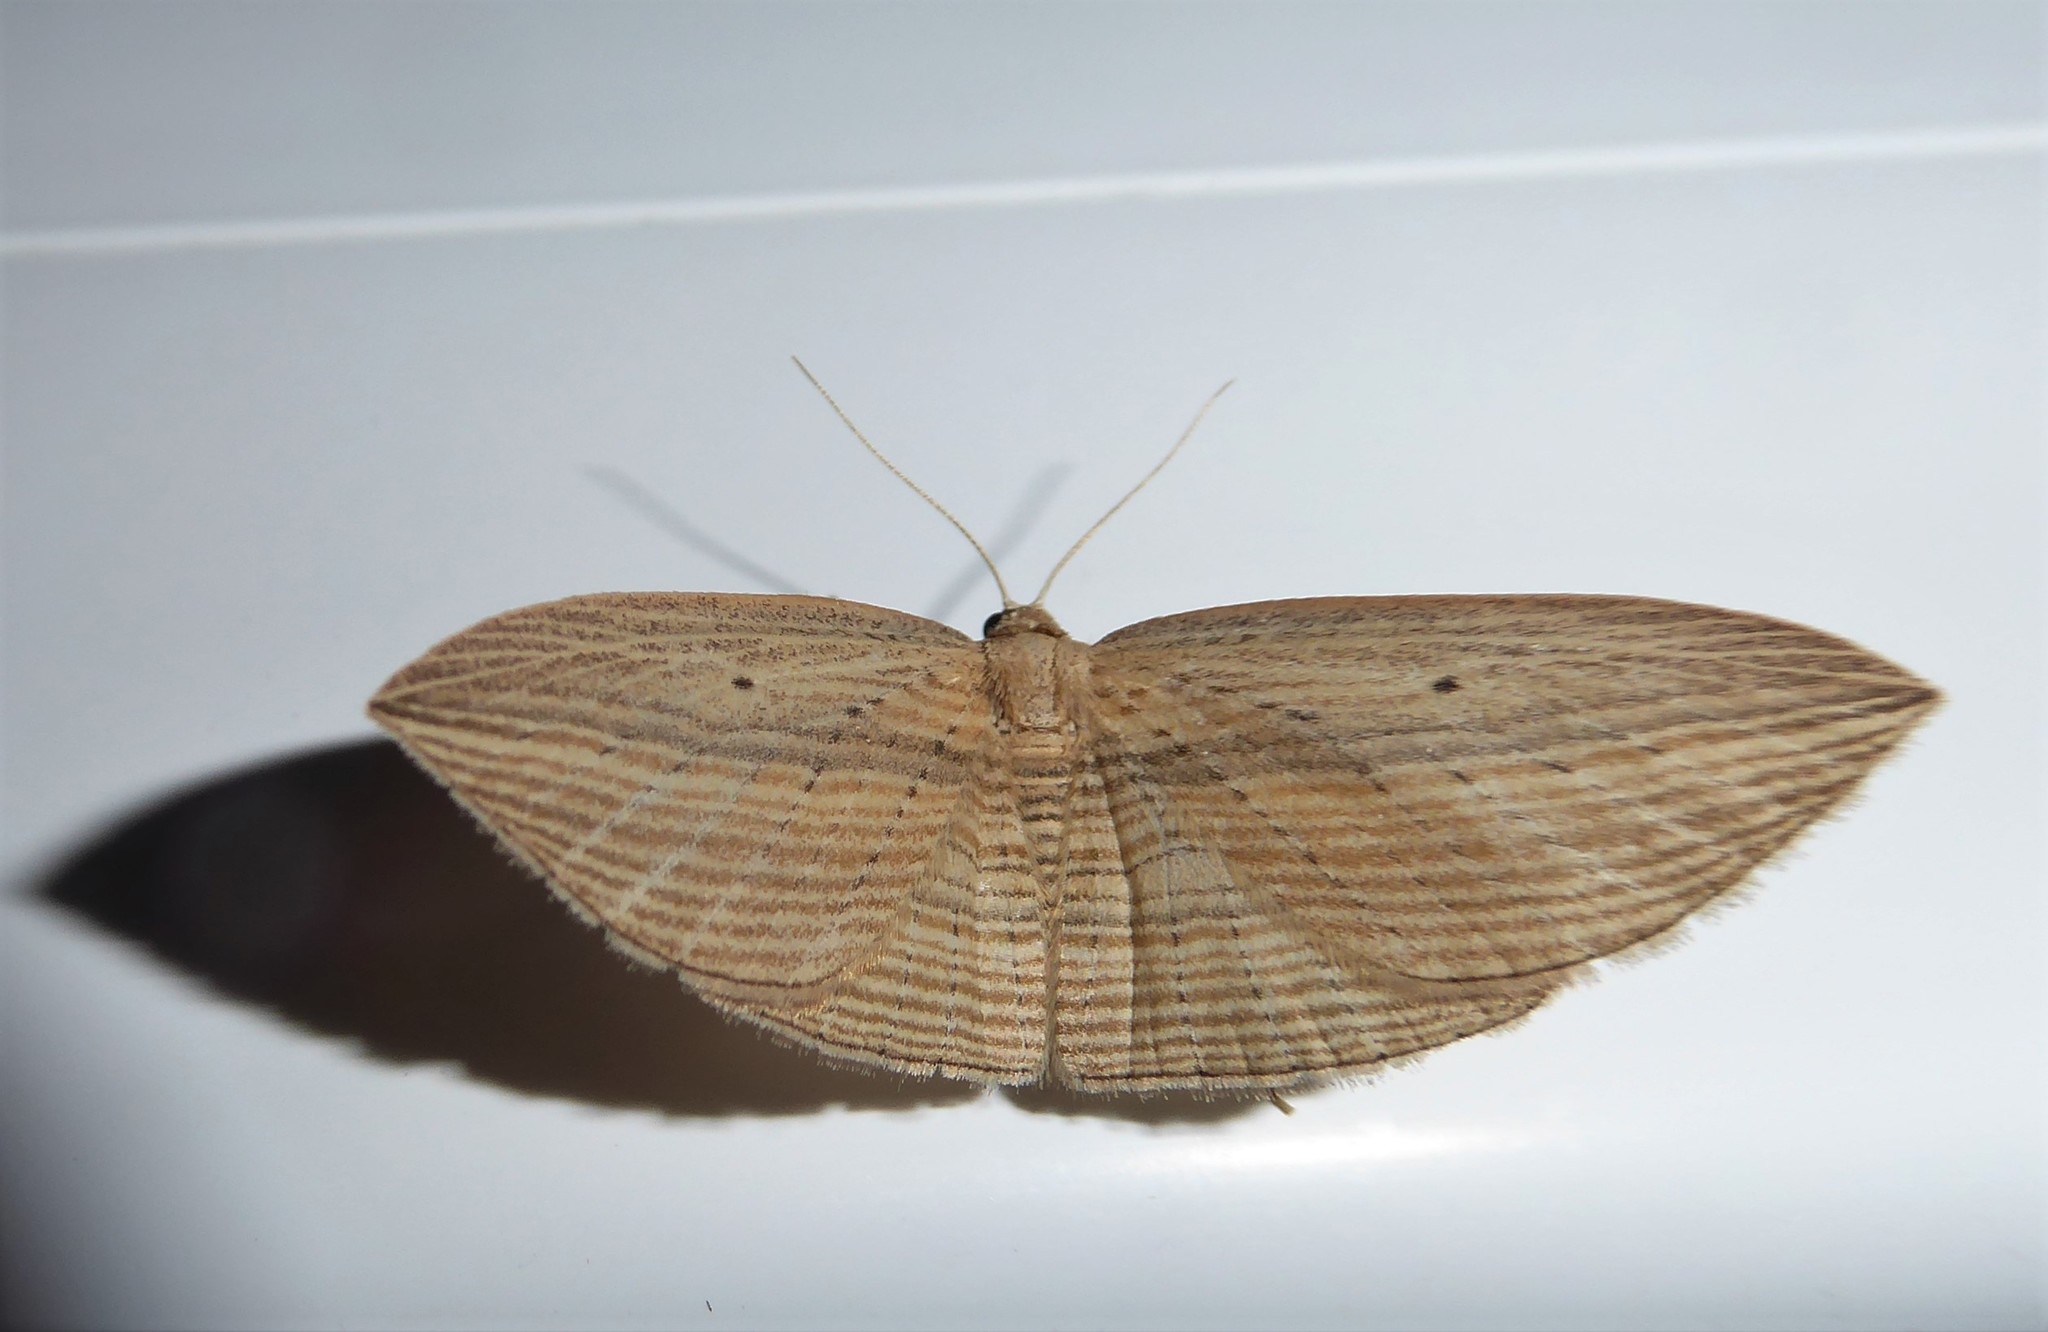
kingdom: Animalia
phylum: Arthropoda
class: Insecta
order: Lepidoptera
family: Geometridae
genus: Epiphryne
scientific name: Epiphryne verriculata
